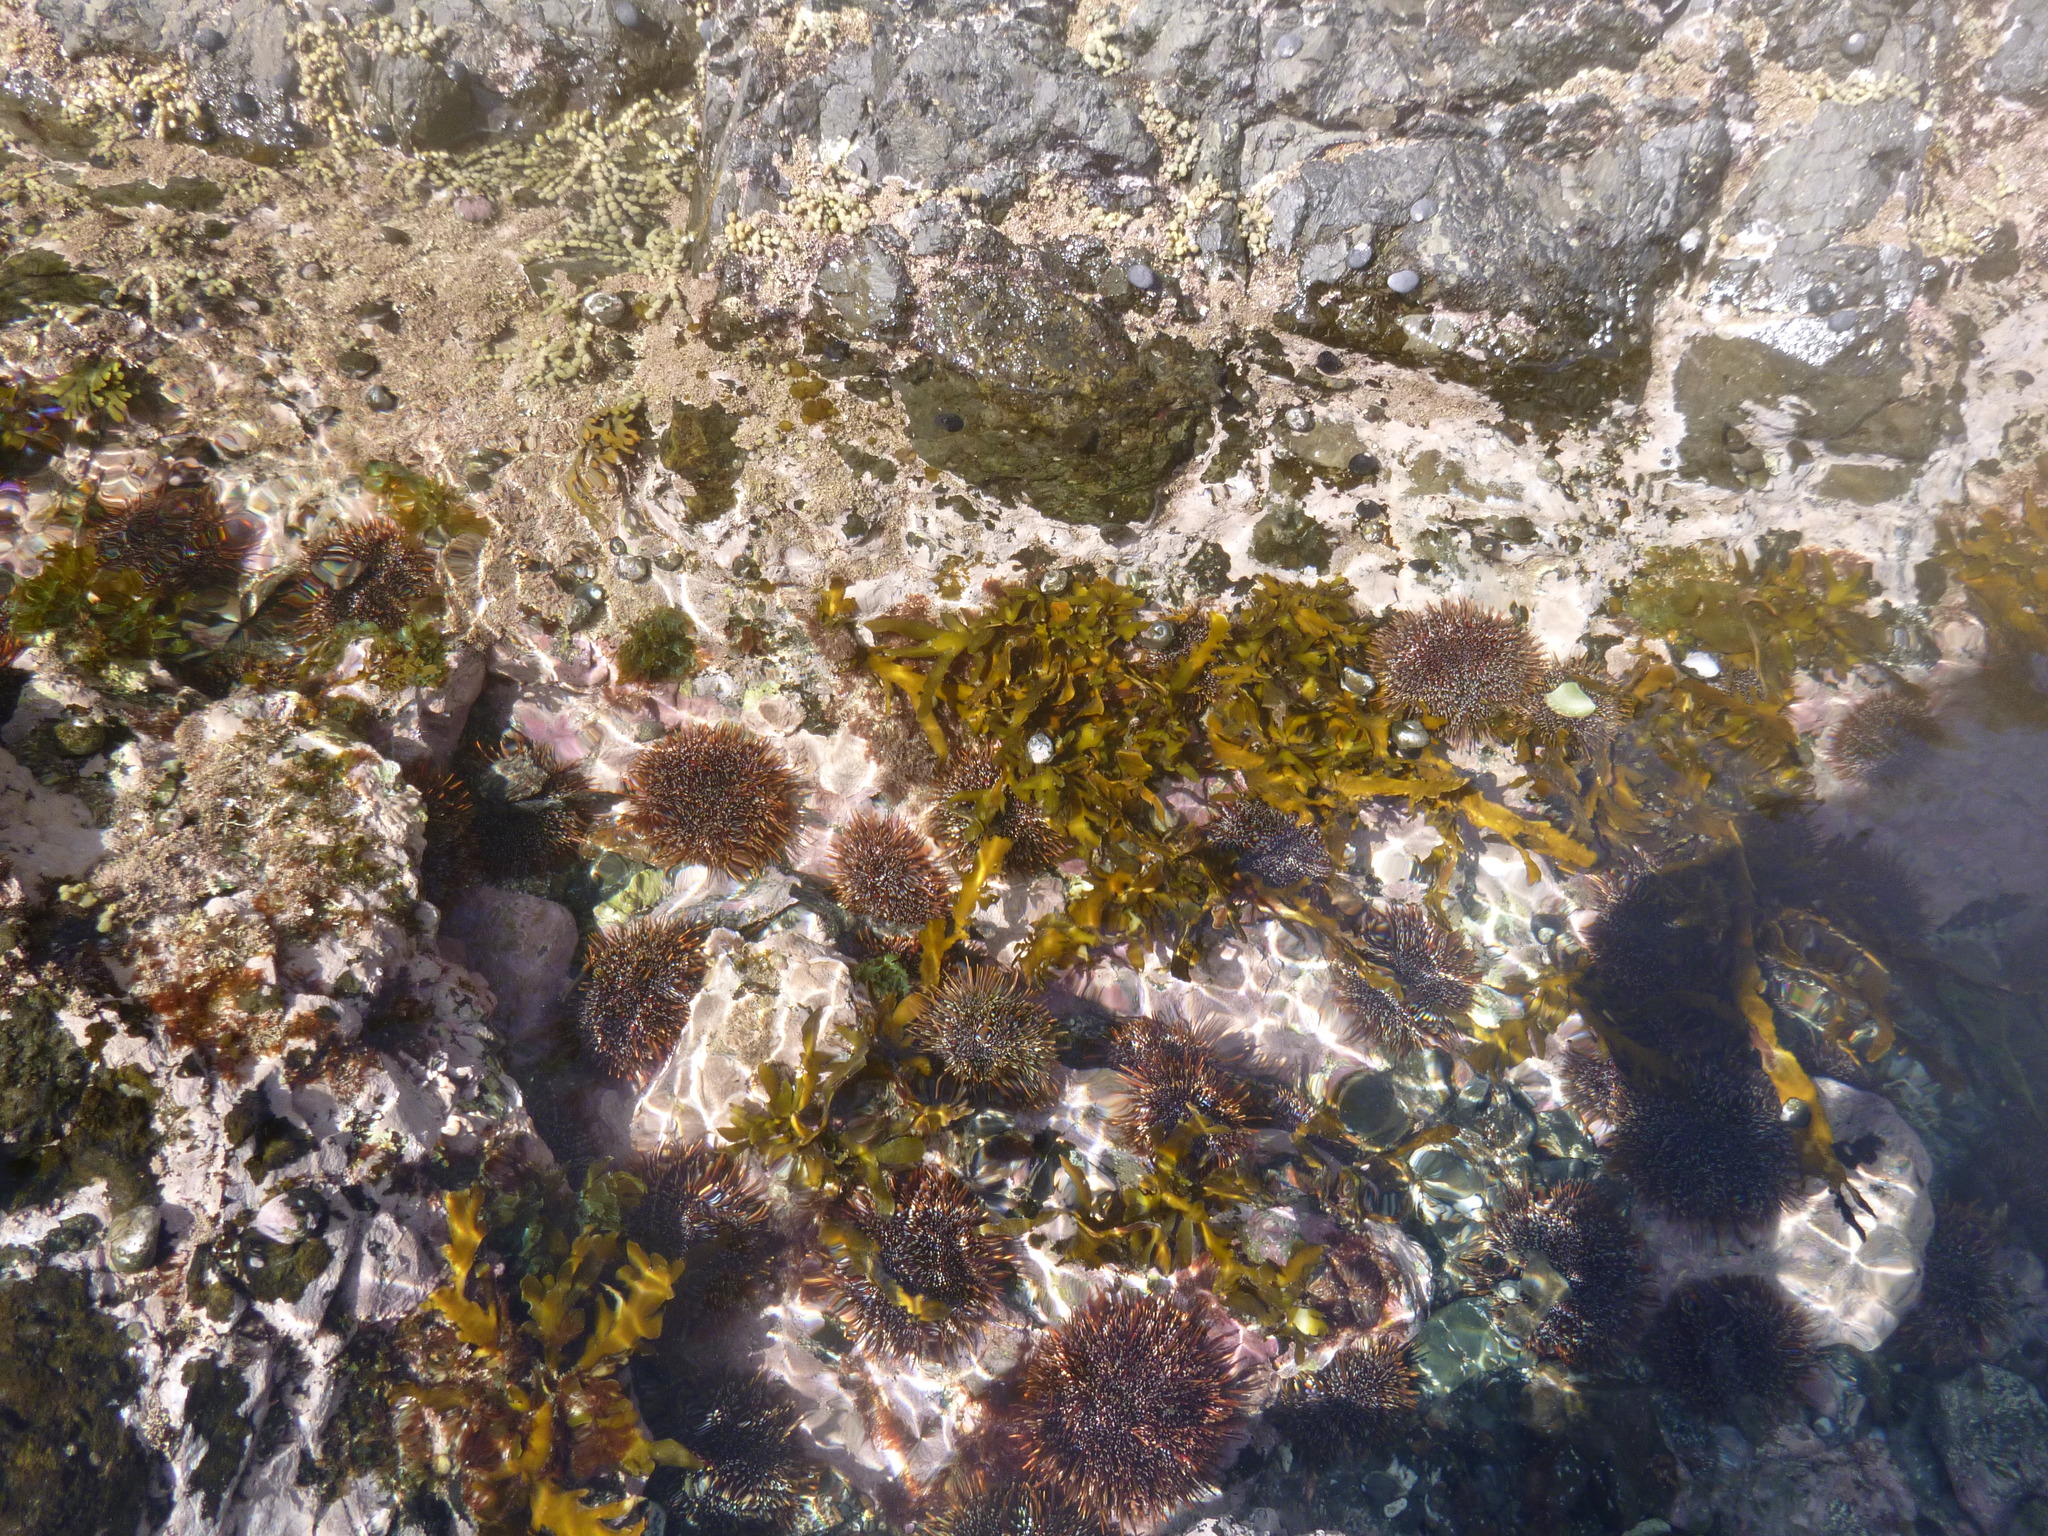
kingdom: Animalia
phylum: Echinodermata
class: Echinoidea
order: Camarodonta
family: Echinometridae
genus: Evechinus
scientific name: Evechinus chloroticus
